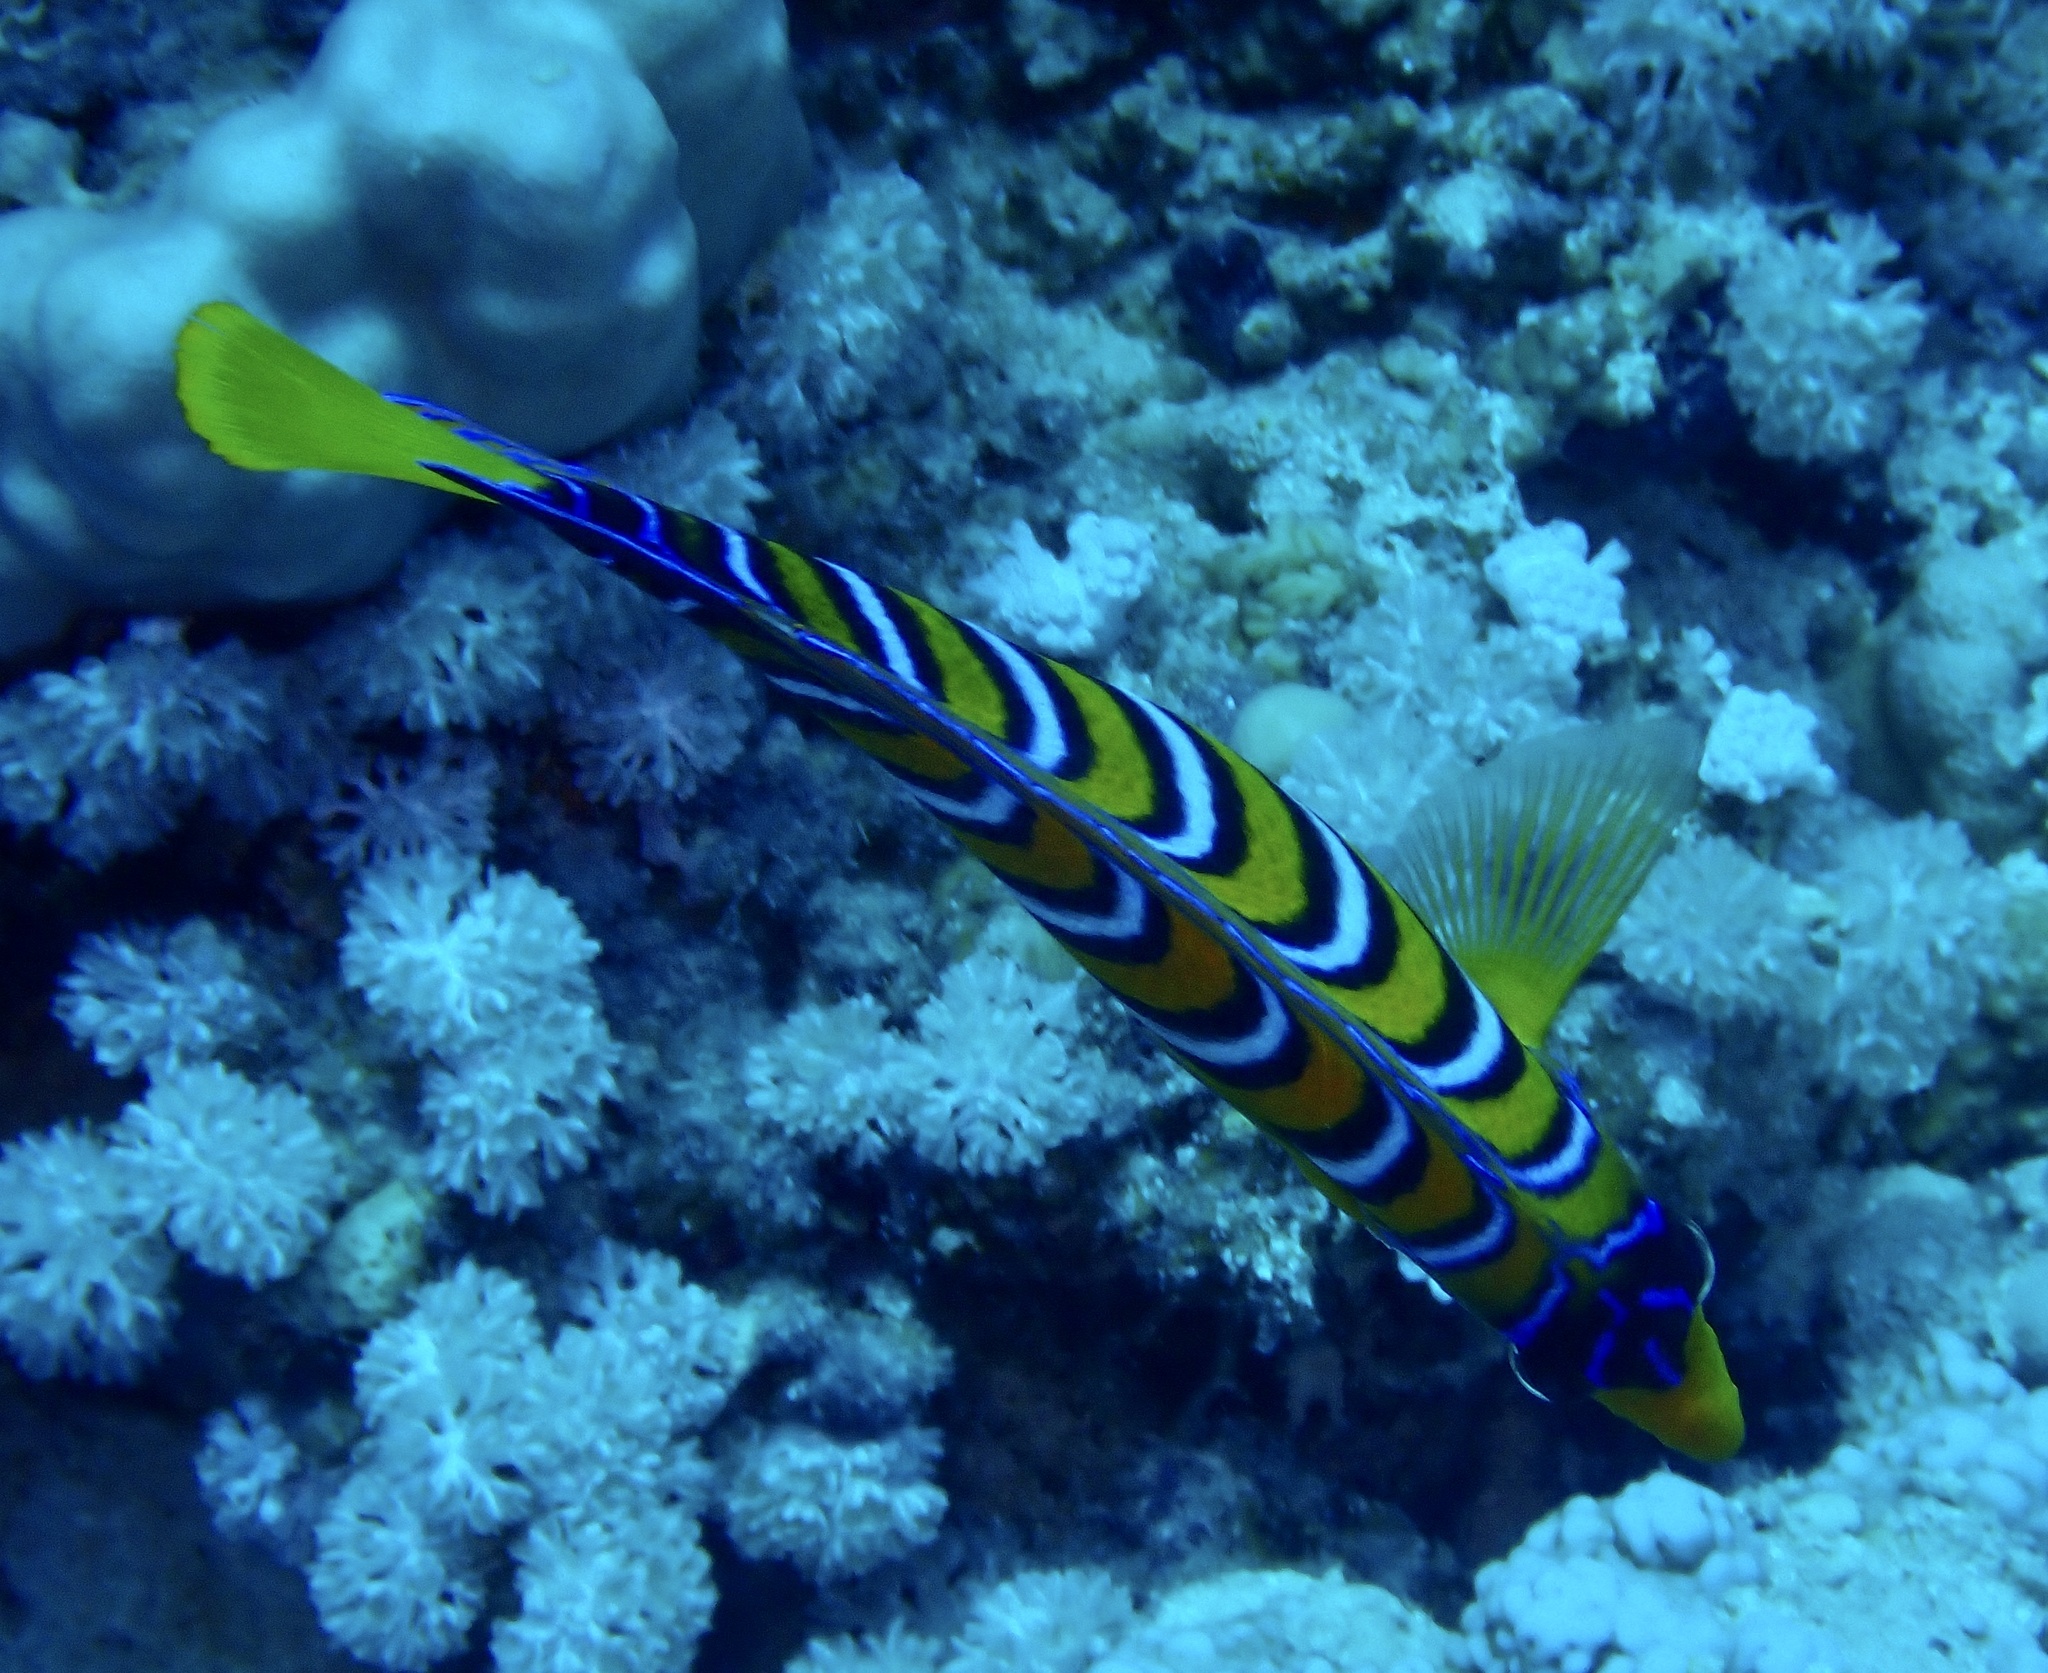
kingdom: Animalia
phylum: Chordata
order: Perciformes
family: Pomacanthidae
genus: Pygoplites
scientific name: Pygoplites diacanthus
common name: Regal angelfish
